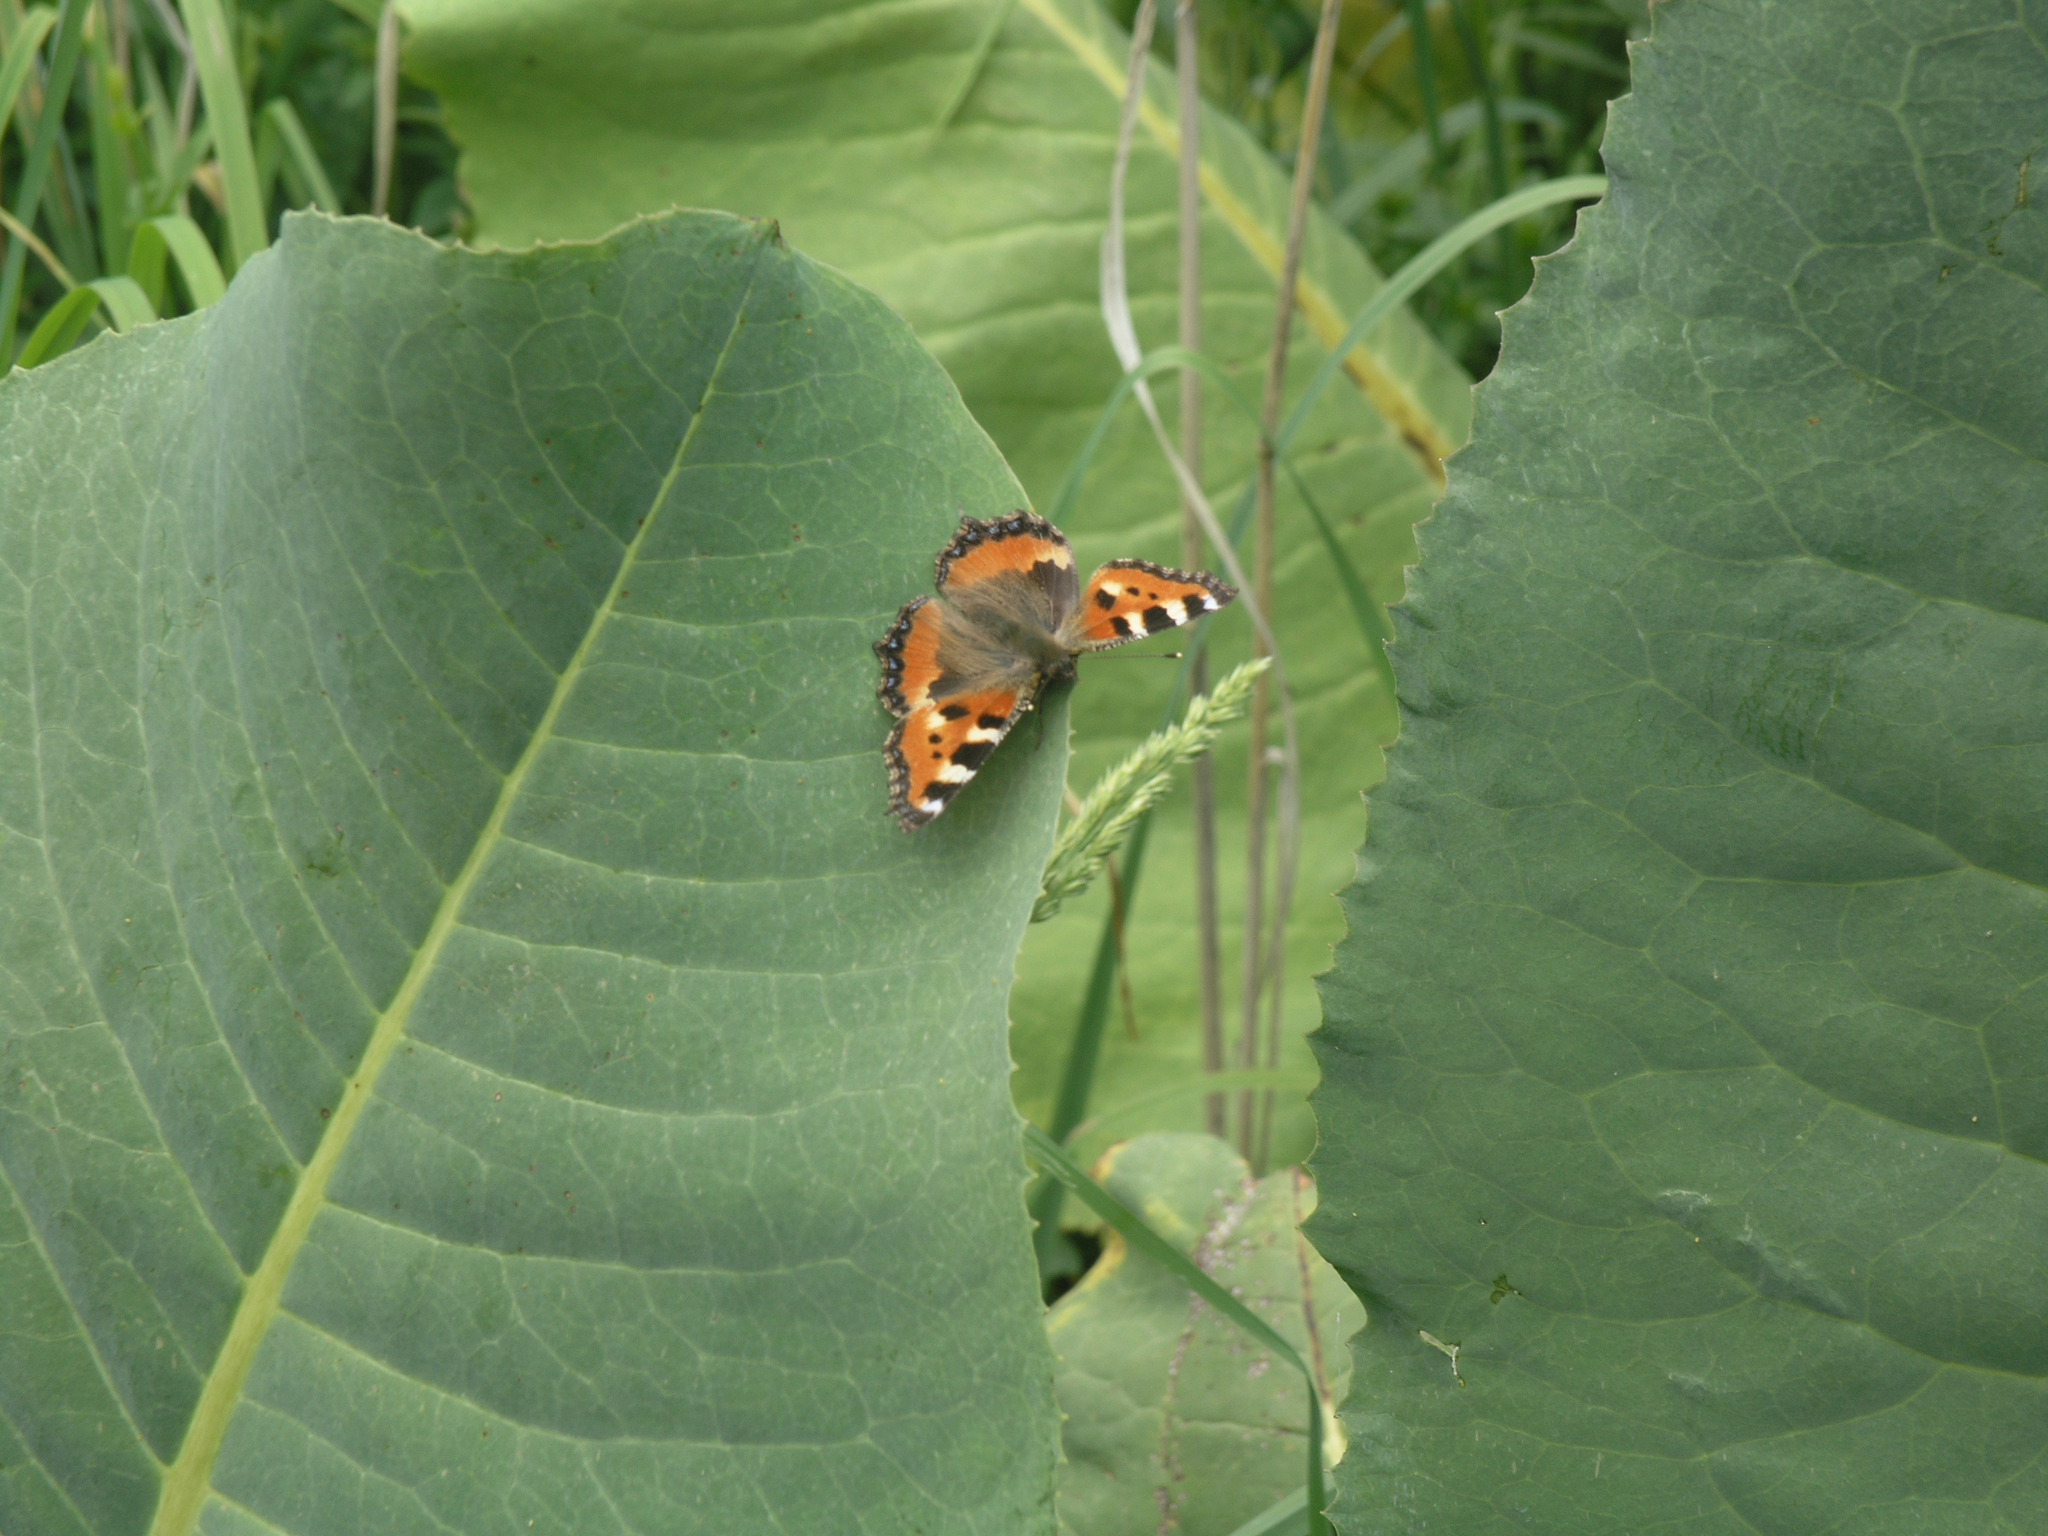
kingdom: Animalia
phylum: Arthropoda
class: Insecta
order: Lepidoptera
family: Nymphalidae
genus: Aglais
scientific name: Aglais urticae
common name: Small tortoiseshell
